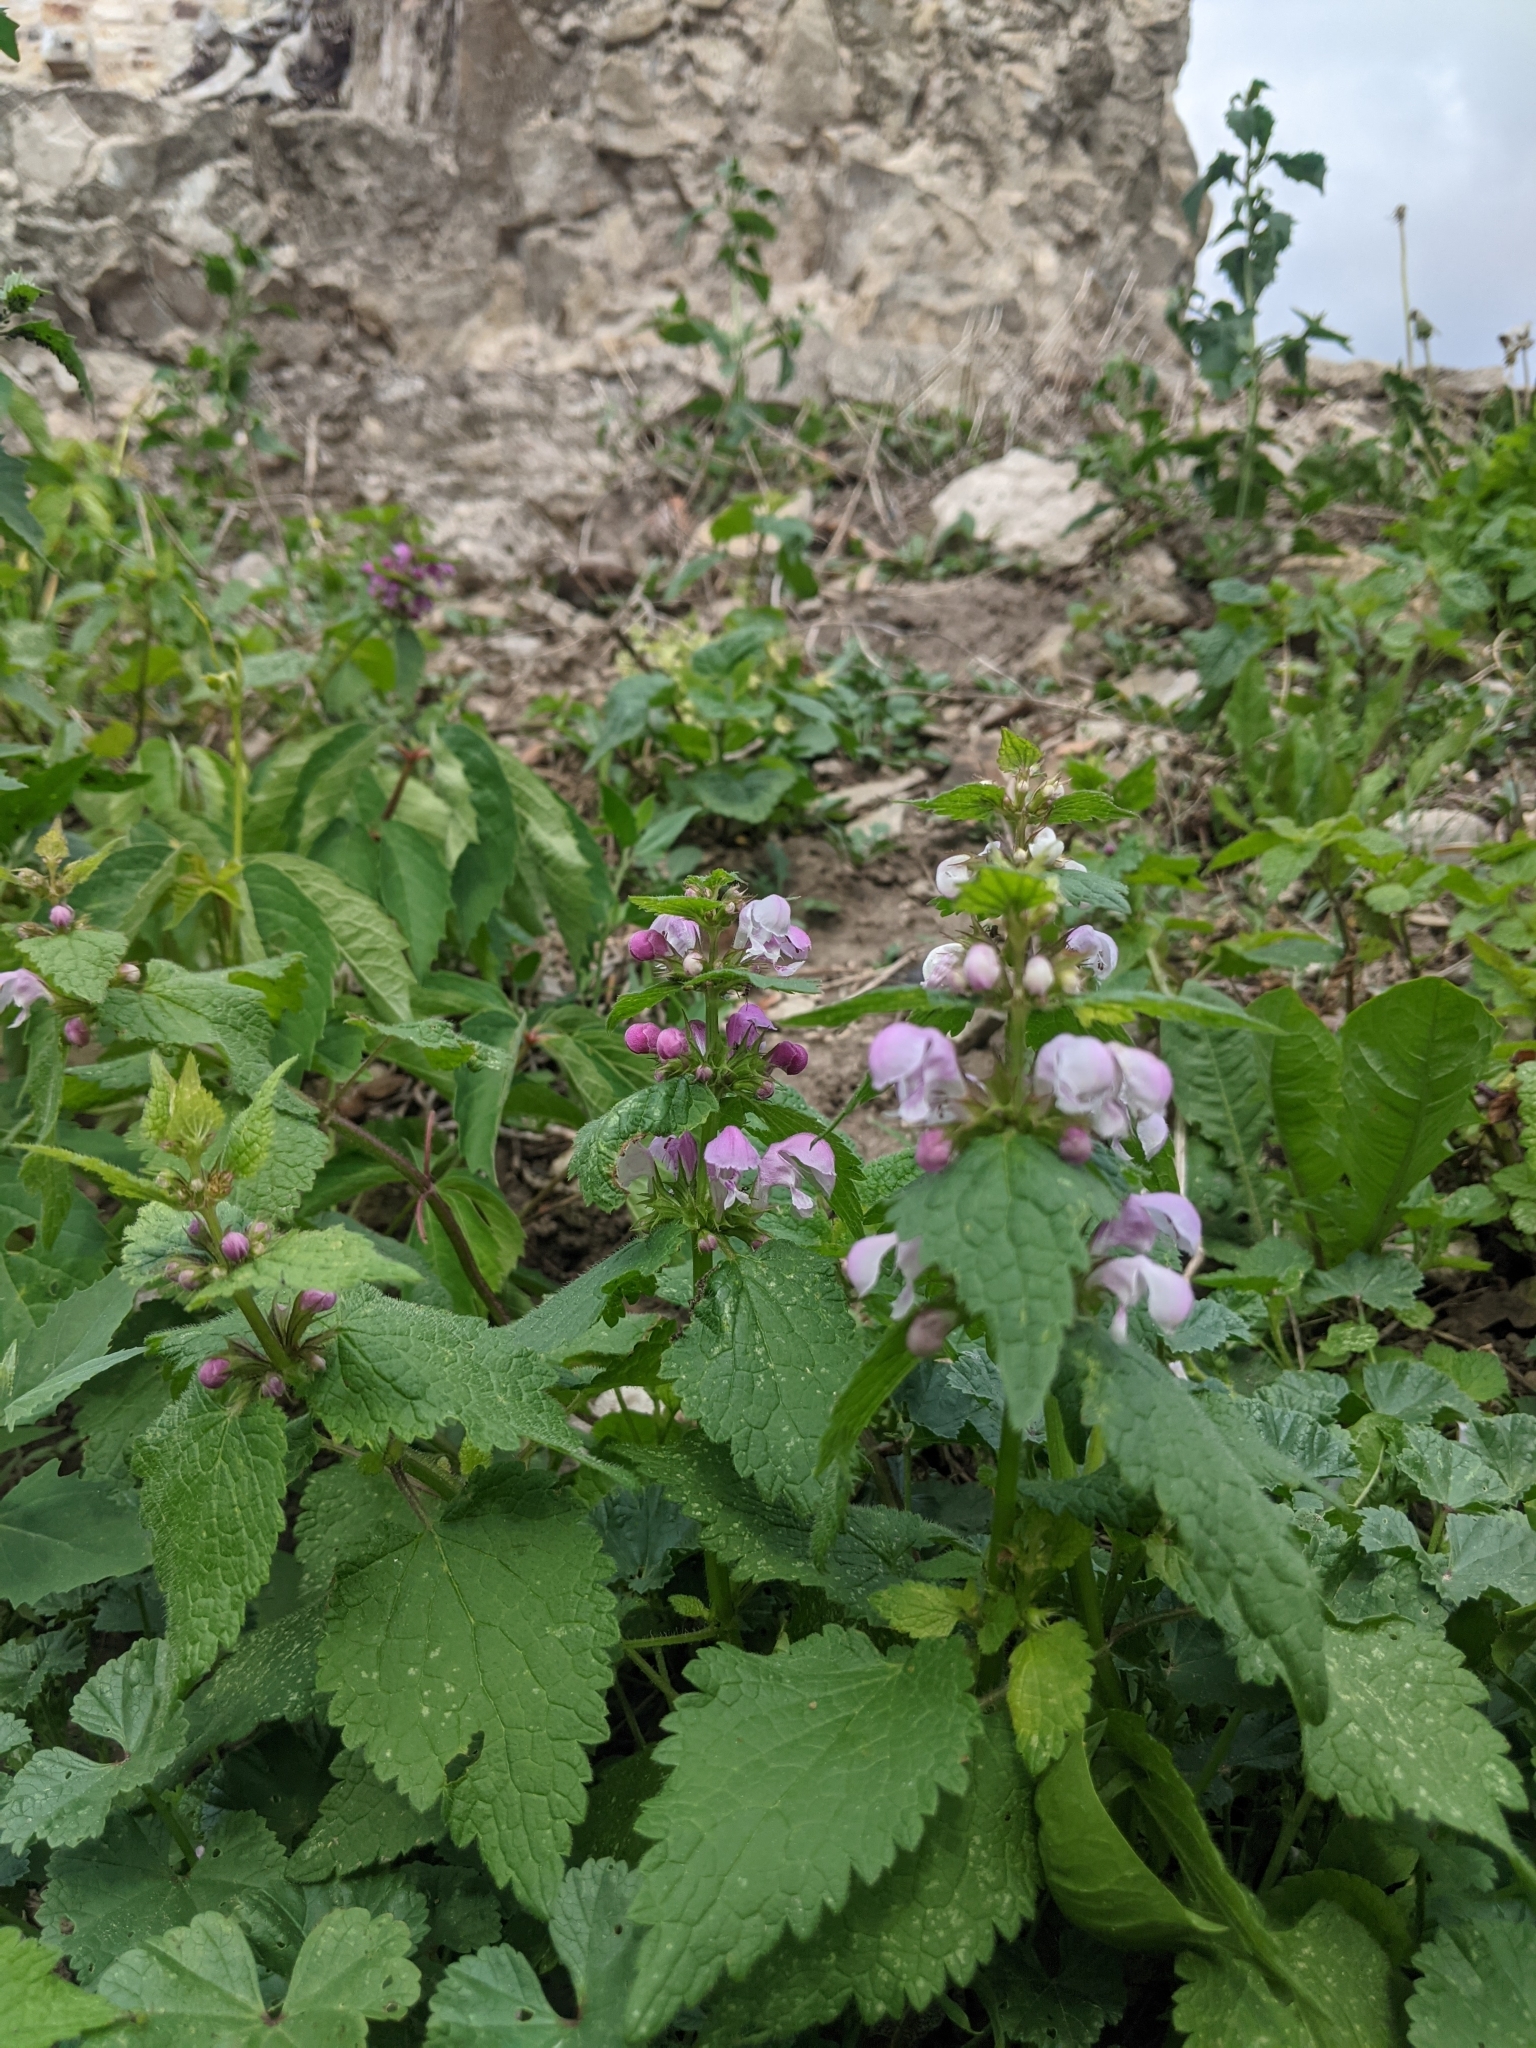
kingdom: Plantae
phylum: Tracheophyta
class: Magnoliopsida
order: Lamiales
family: Lamiaceae
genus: Lamium
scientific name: Lamium maculatum
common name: Spotted dead-nettle
